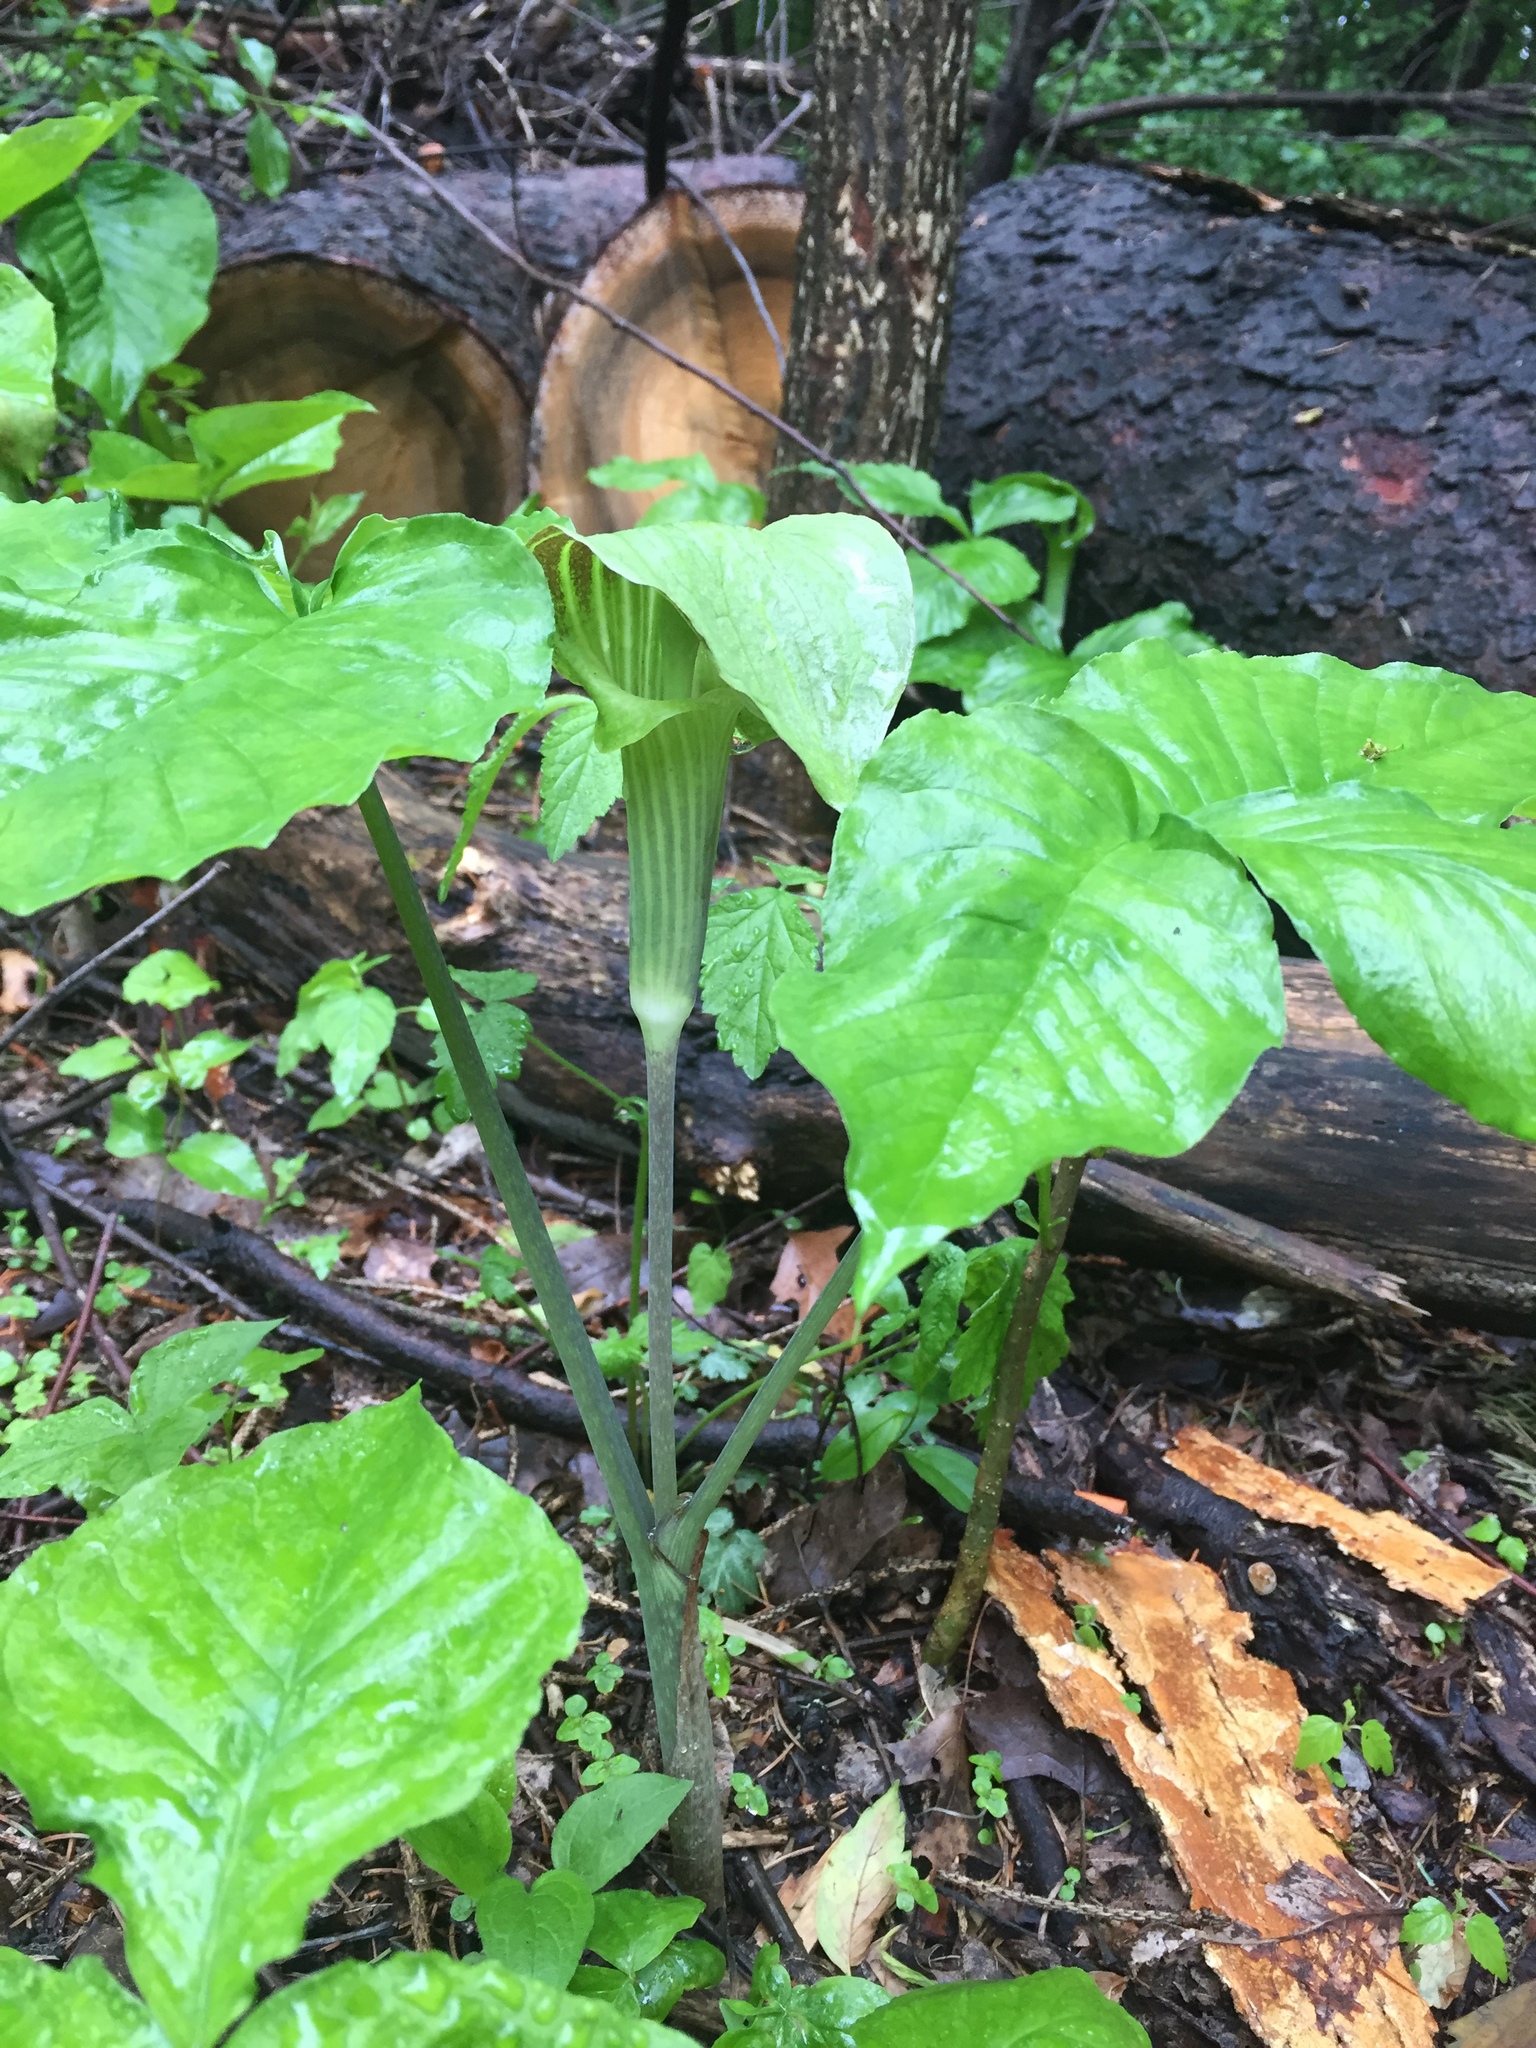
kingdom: Plantae
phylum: Tracheophyta
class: Liliopsida
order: Alismatales
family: Araceae
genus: Arisaema
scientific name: Arisaema triphyllum
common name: Jack-in-the-pulpit
